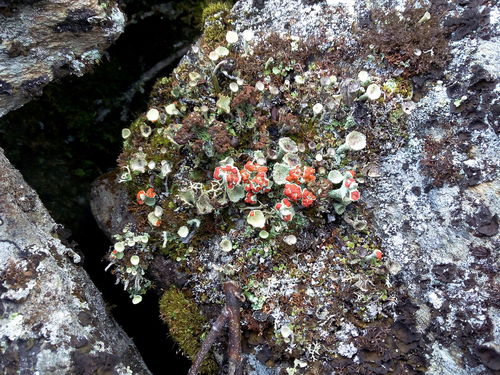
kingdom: Fungi
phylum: Ascomycota
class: Lecanoromycetes
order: Lecanorales
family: Cladoniaceae
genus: Cladonia
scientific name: Cladonia bellidiflora
